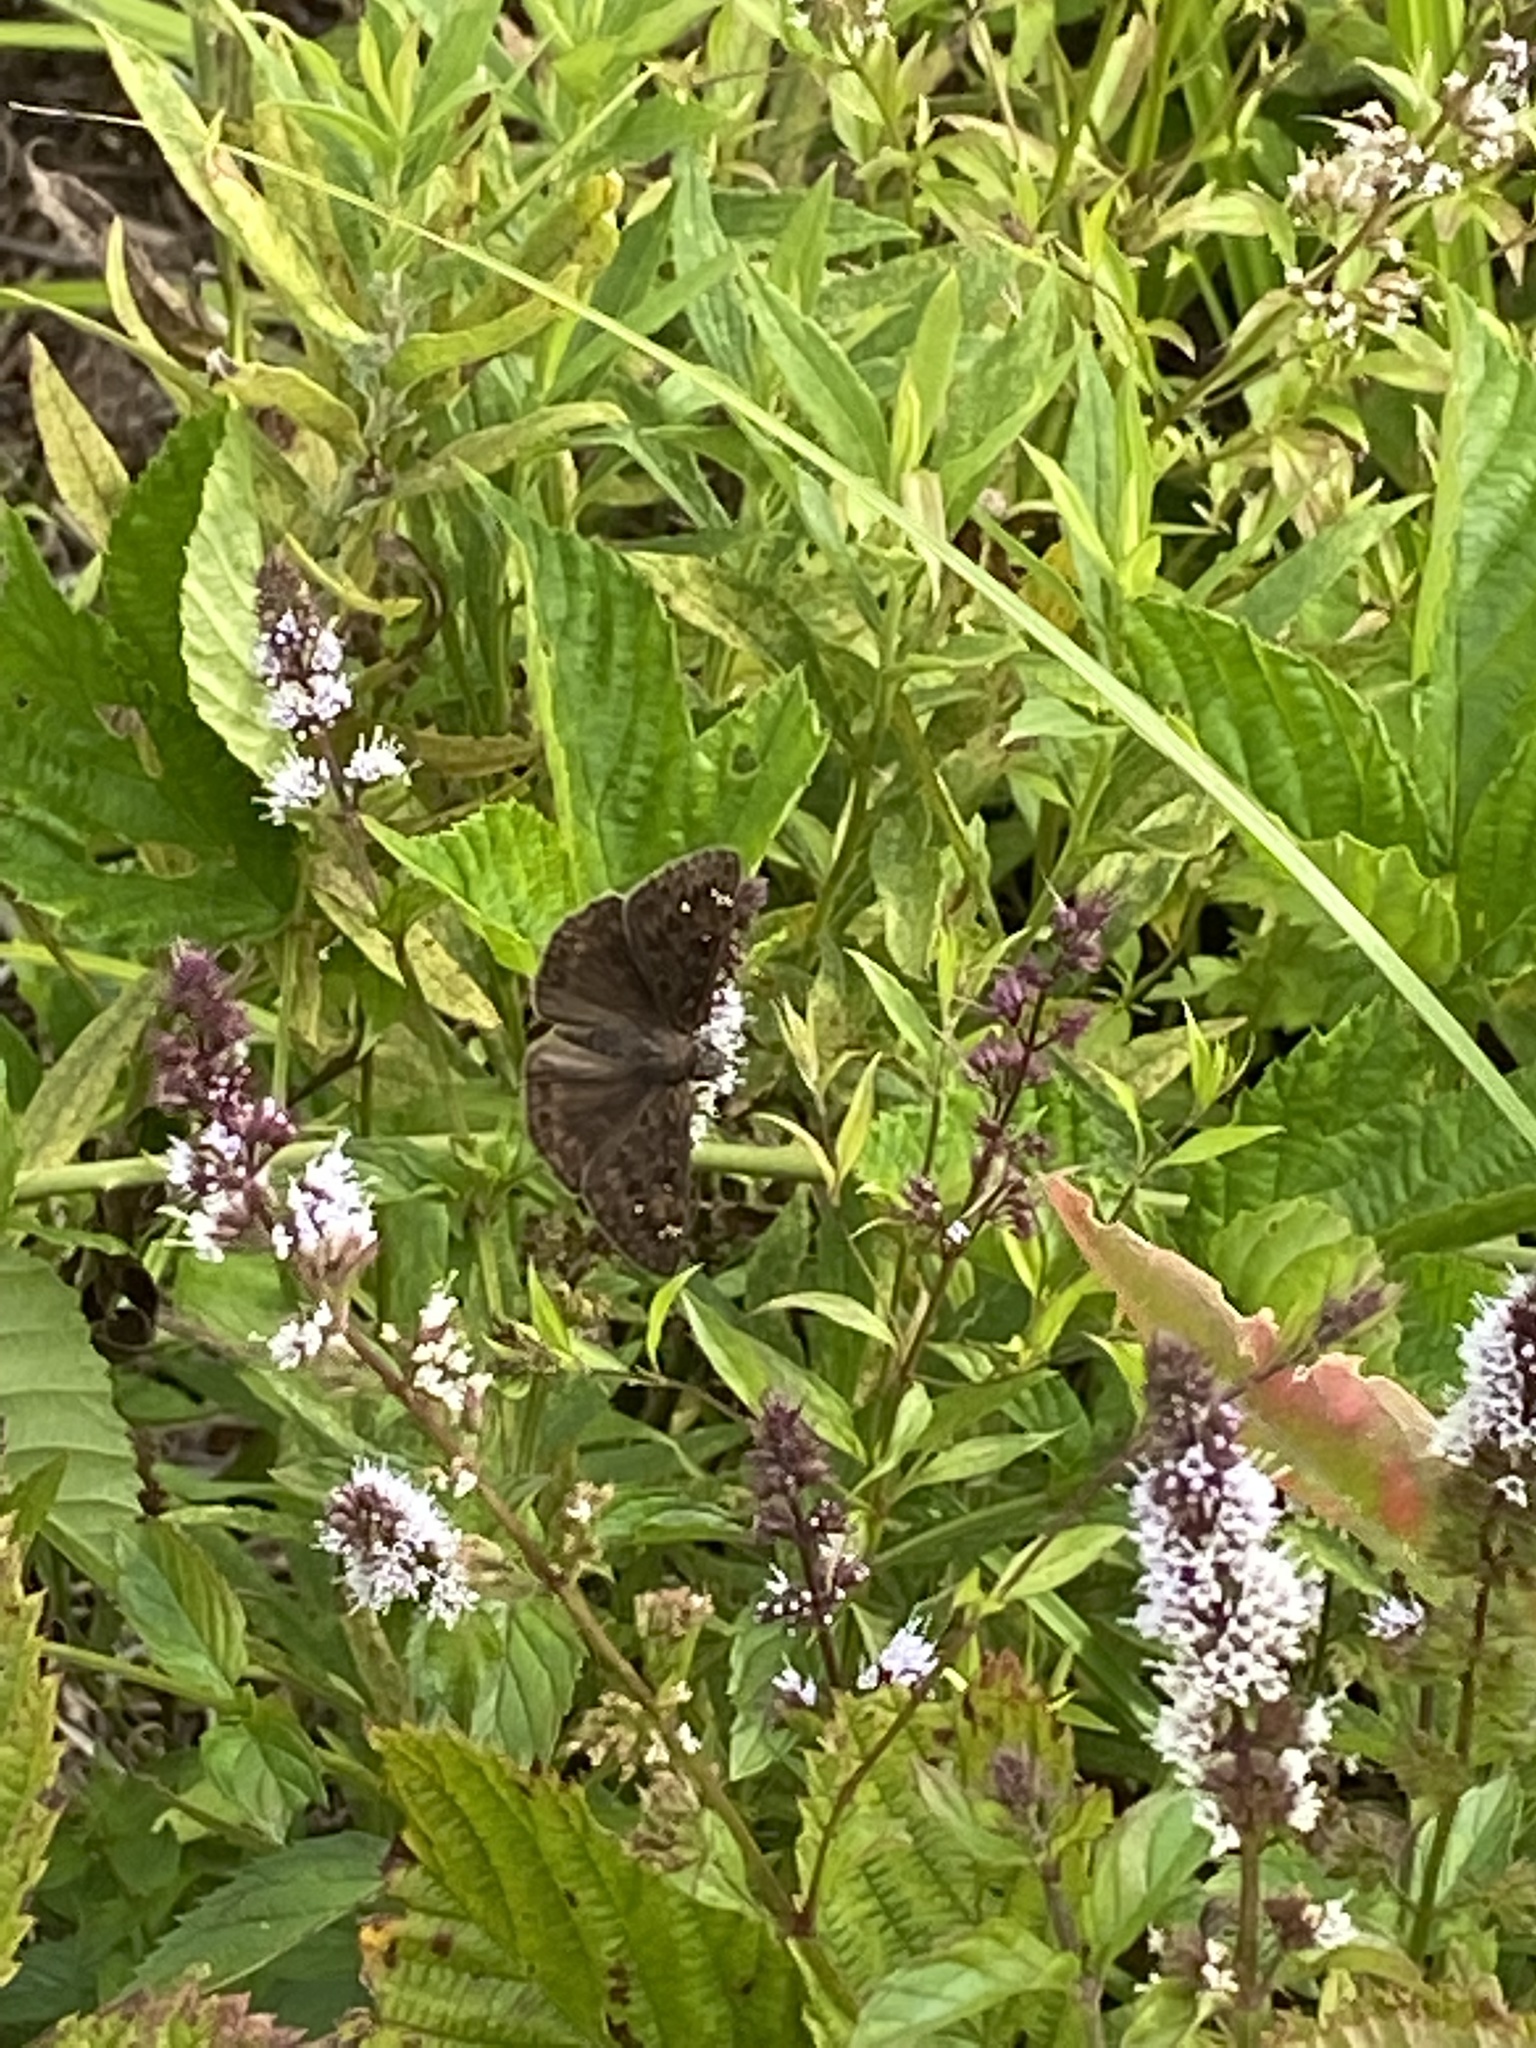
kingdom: Animalia
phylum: Arthropoda
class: Insecta
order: Lepidoptera
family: Hesperiidae
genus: Erynnis
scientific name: Erynnis horatius
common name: Horace's duskywing
